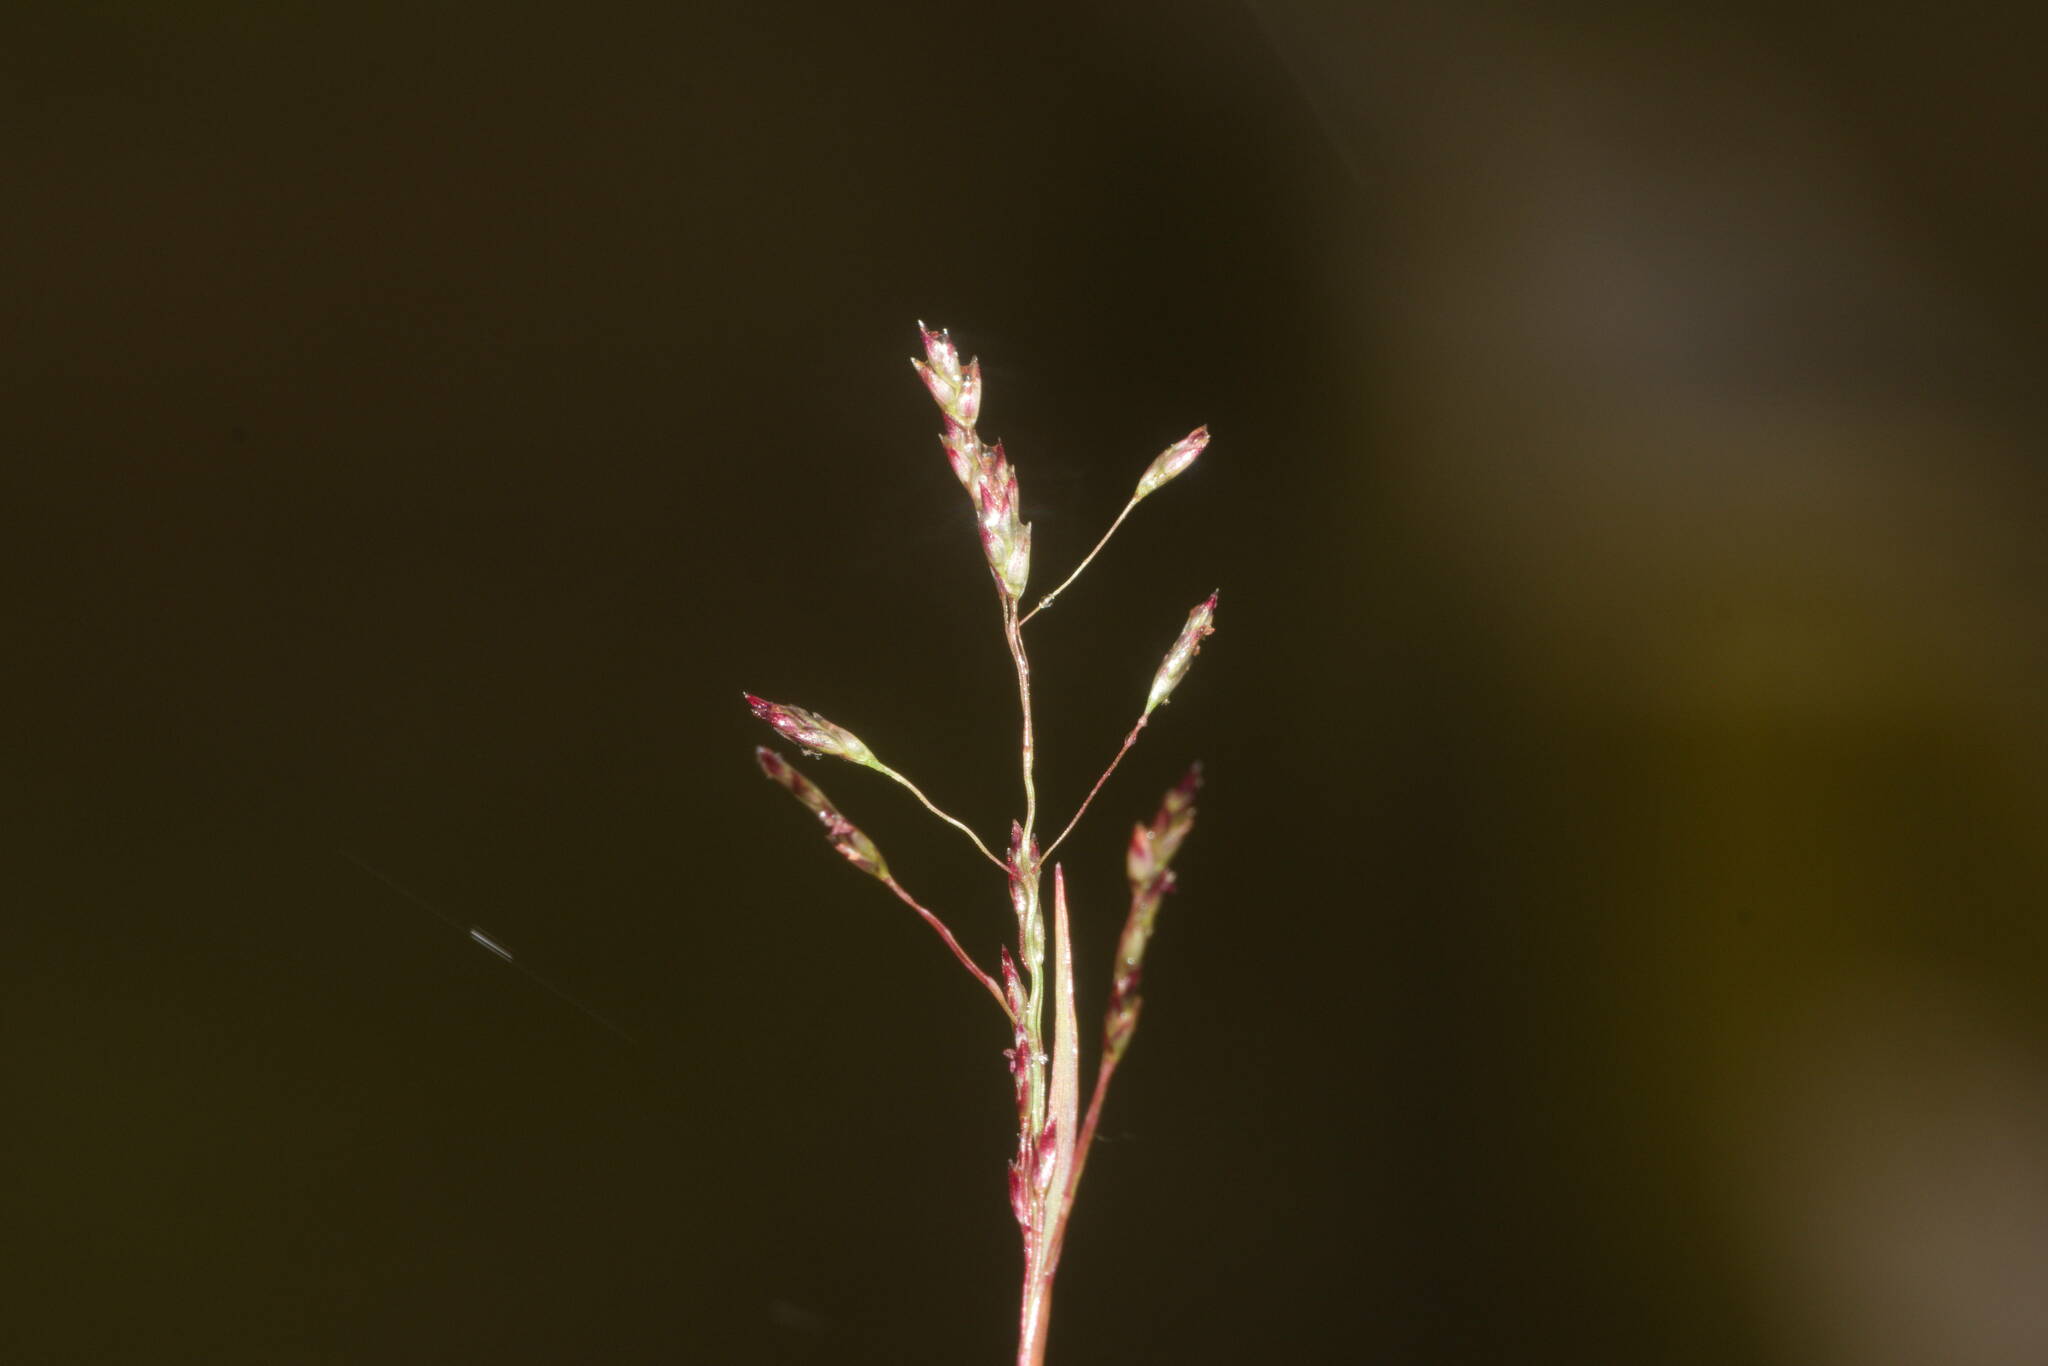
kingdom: Plantae
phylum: Tracheophyta
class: Liliopsida
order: Poales
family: Poaceae
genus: Eragrostis
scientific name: Eragrostis pilosa
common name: Indian lovegrass
